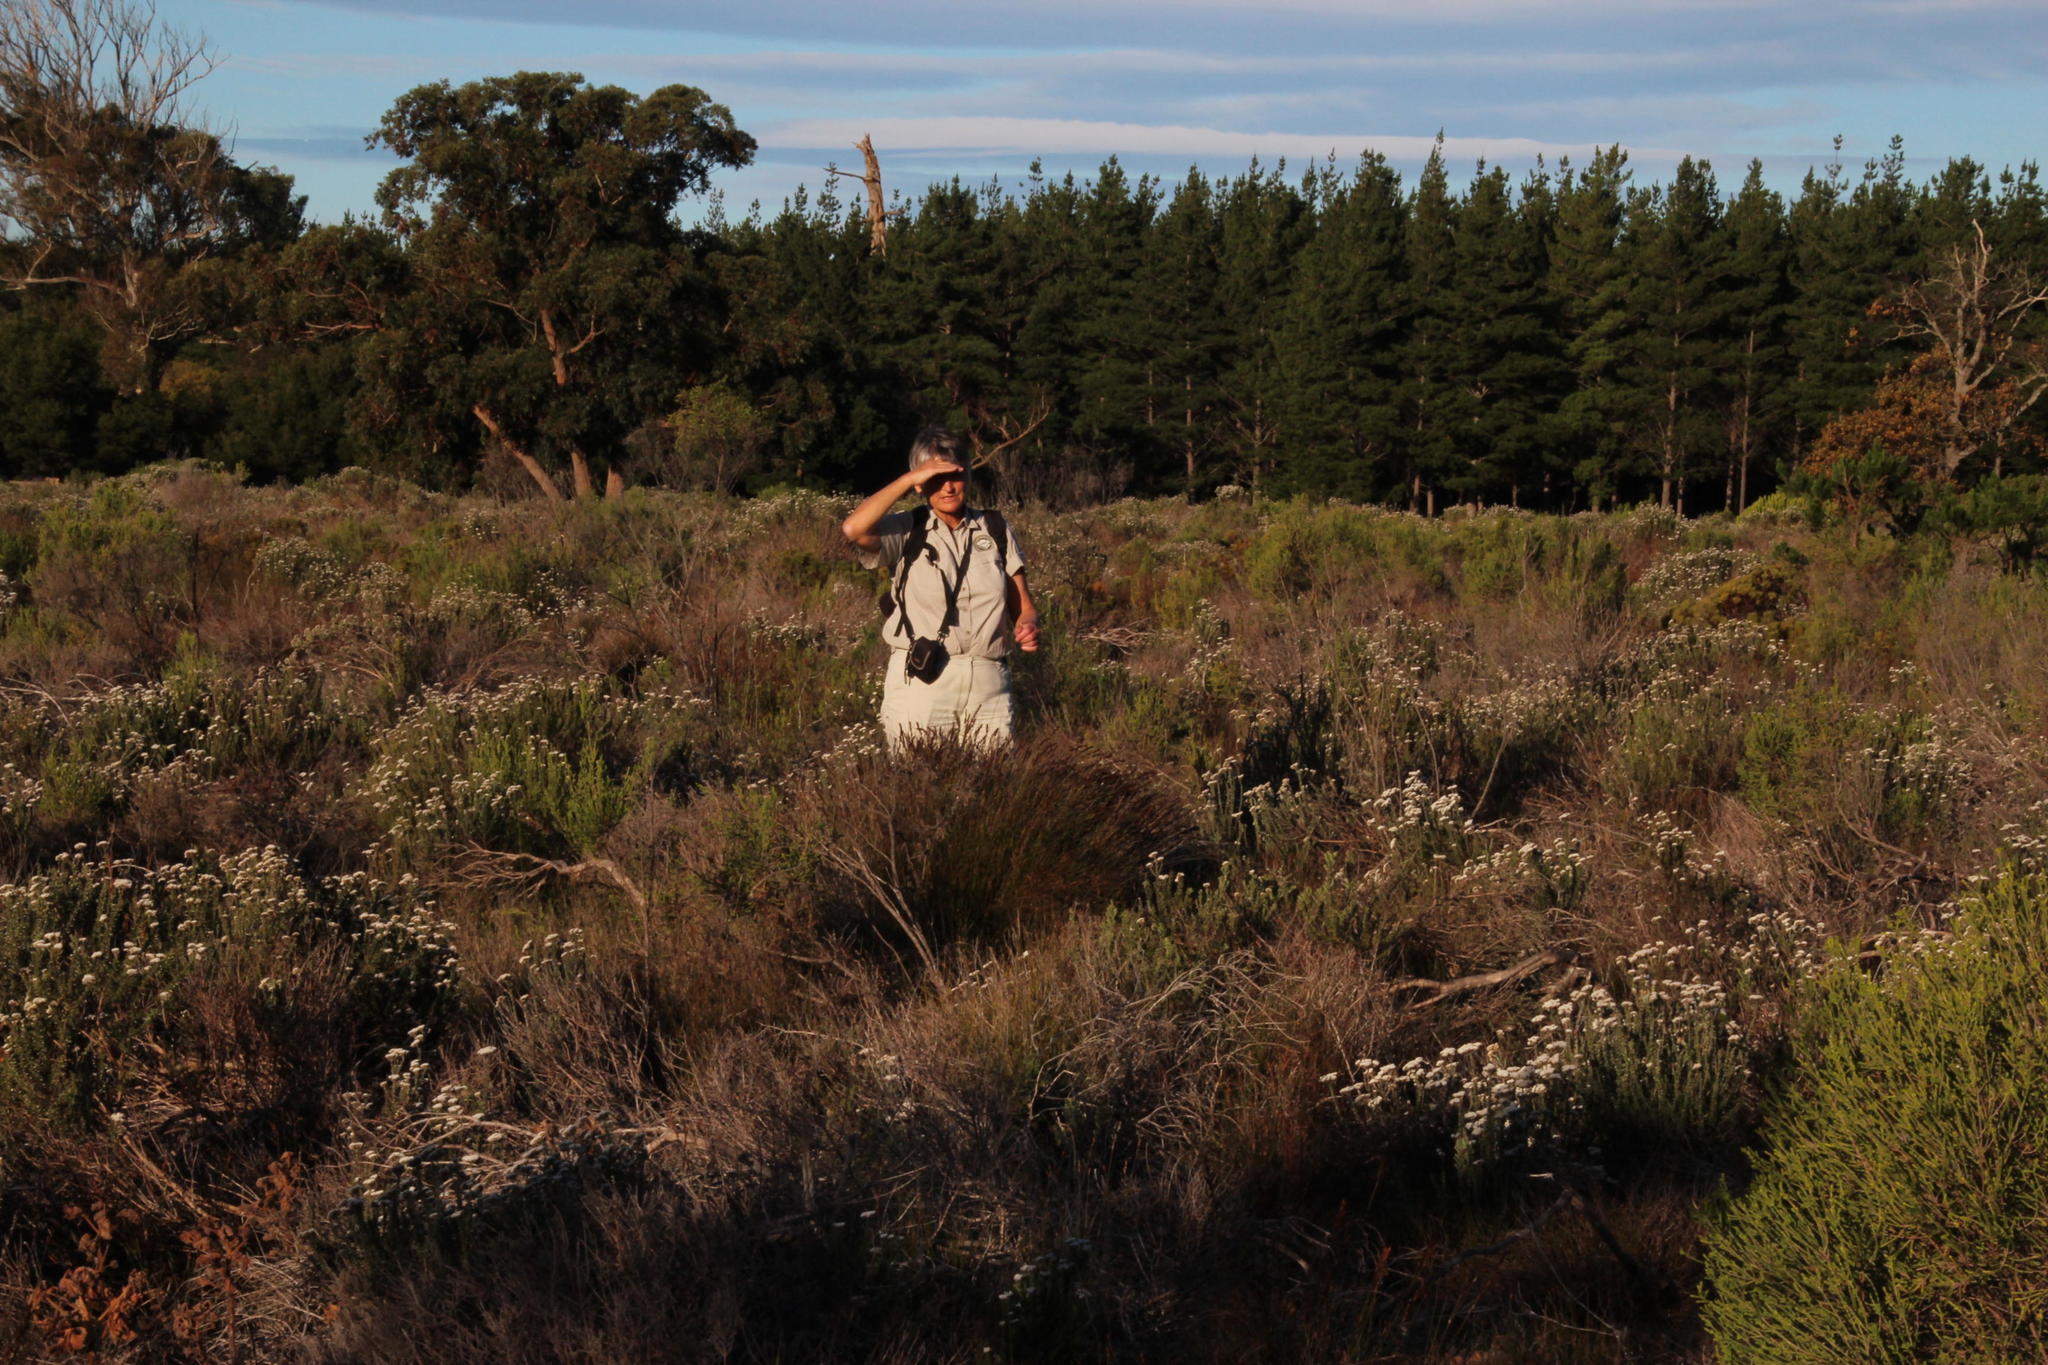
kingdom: Plantae
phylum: Tracheophyta
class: Liliopsida
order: Poales
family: Restionaceae
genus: Elegia
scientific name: Elegia tectorum
